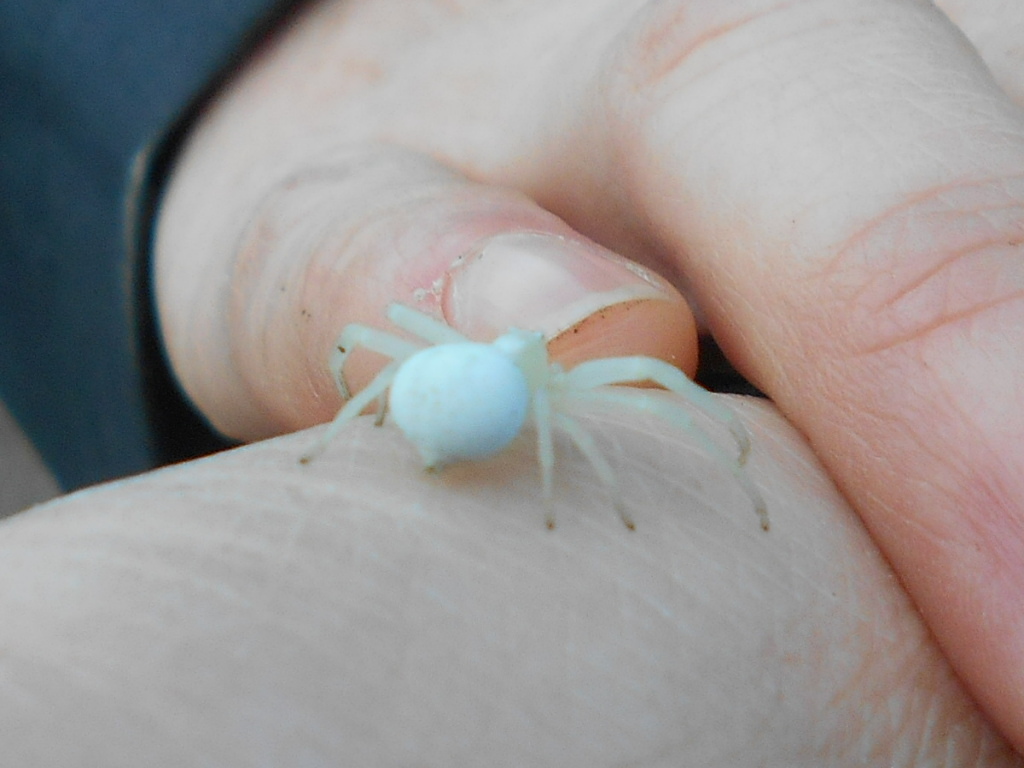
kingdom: Animalia
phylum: Arthropoda
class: Arachnida
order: Araneae
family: Thomisidae
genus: Misumena
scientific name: Misumena vatia
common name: Goldenrod crab spider
